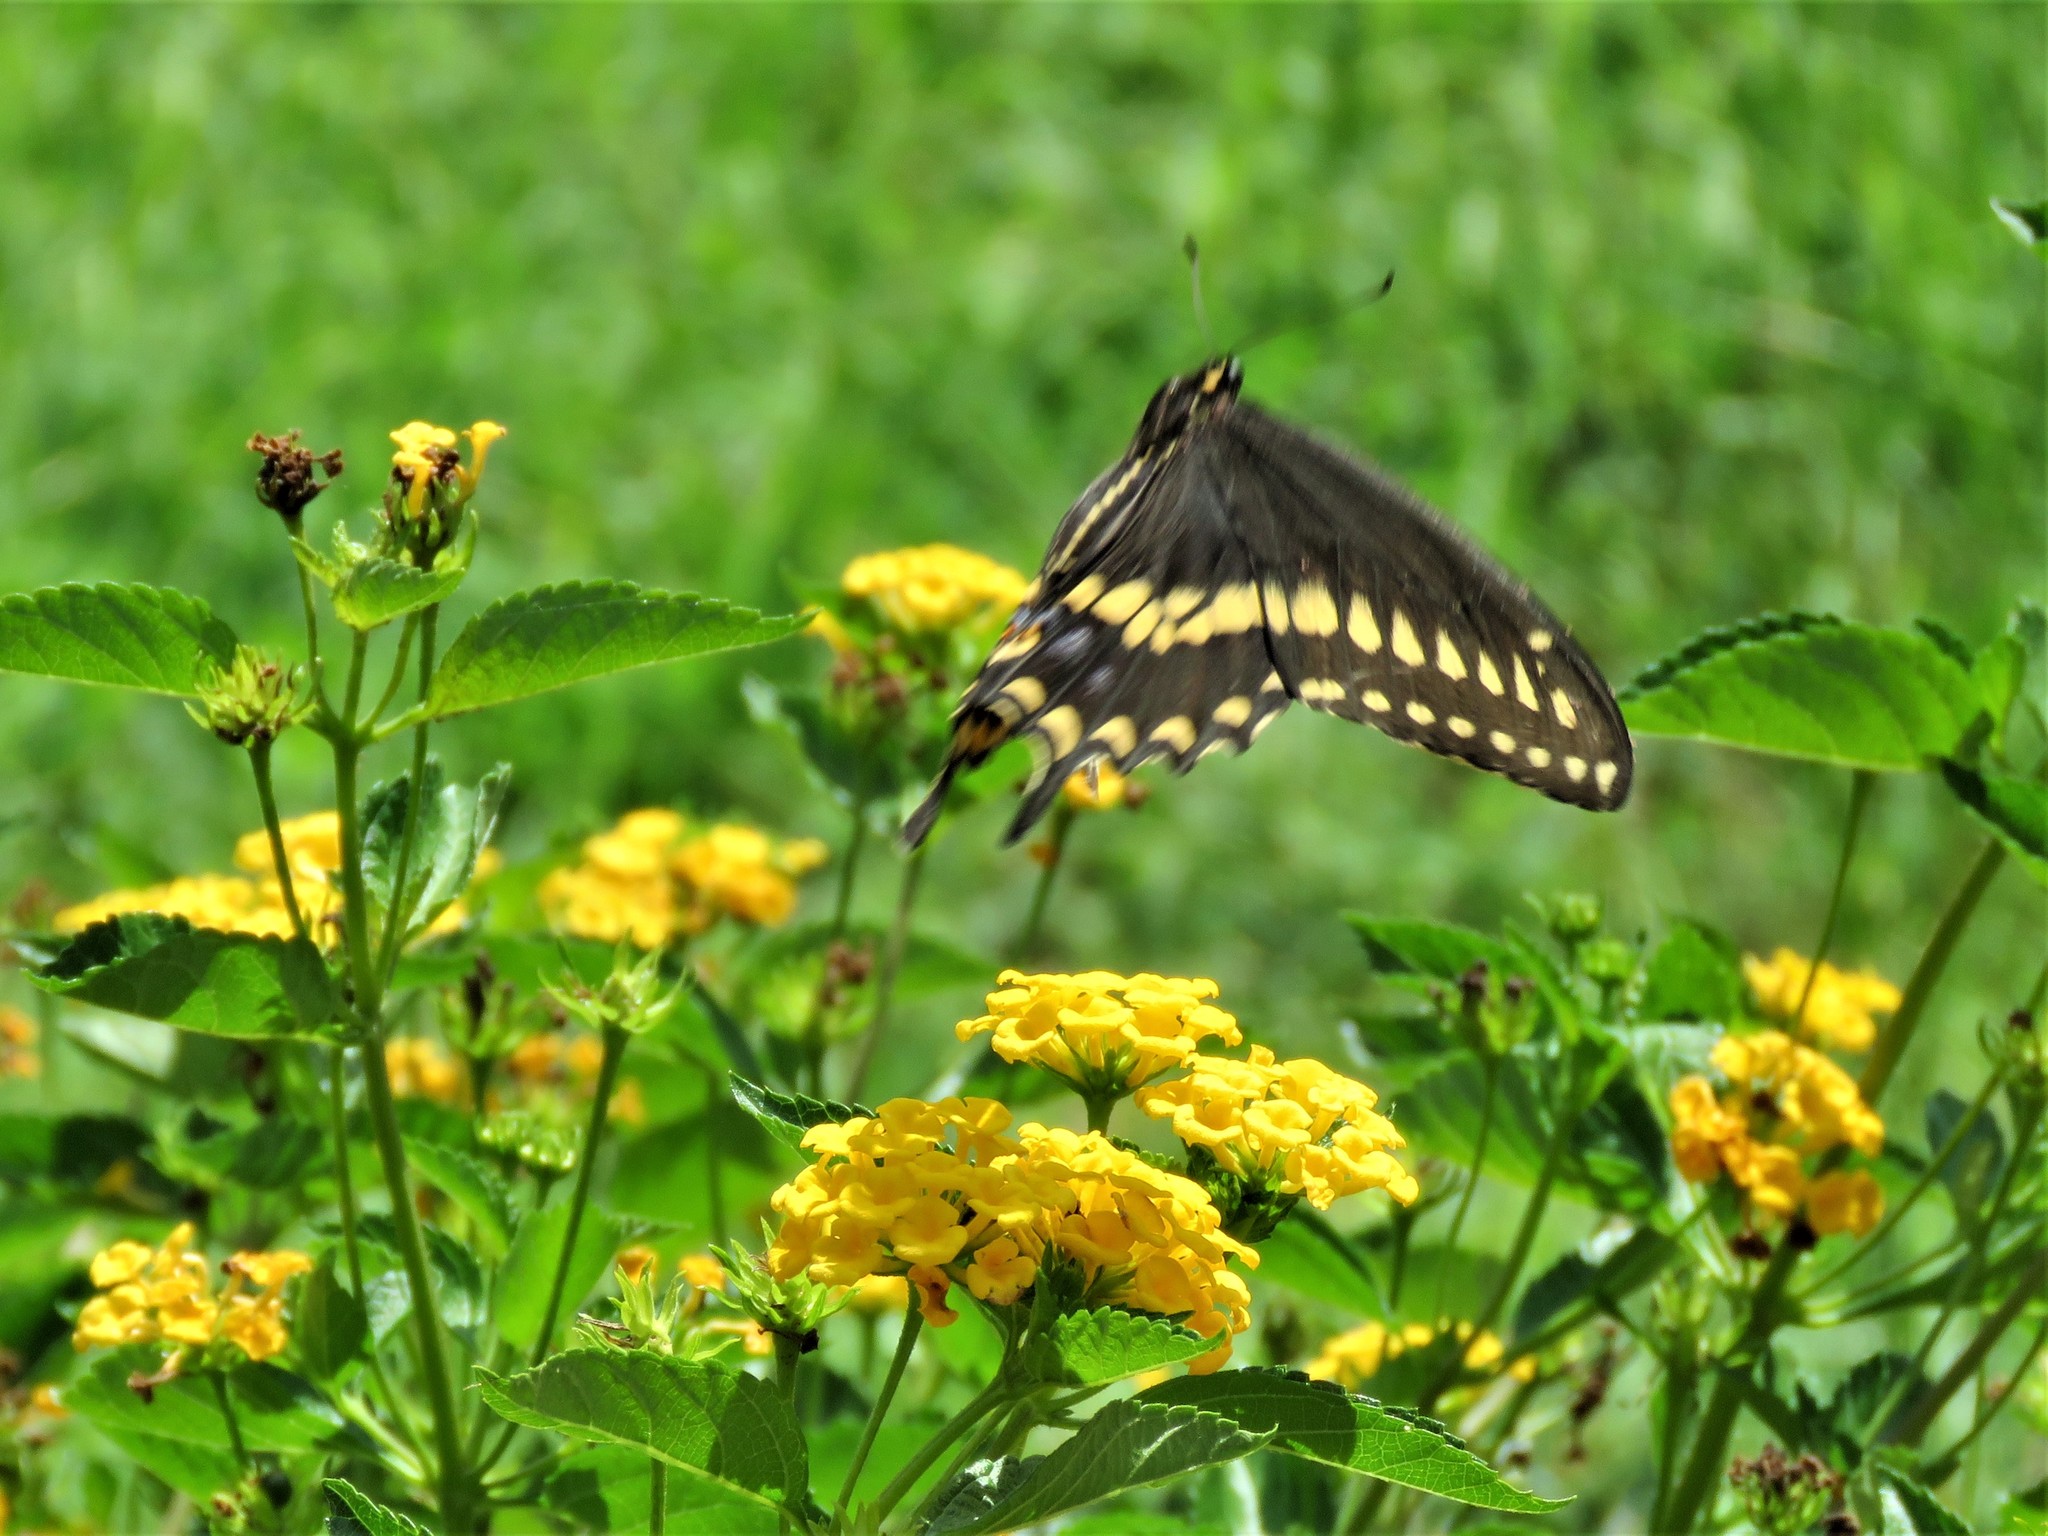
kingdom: Animalia
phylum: Arthropoda
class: Insecta
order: Lepidoptera
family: Papilionidae
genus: Papilio
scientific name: Papilio polyxenes
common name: Black swallowtail
